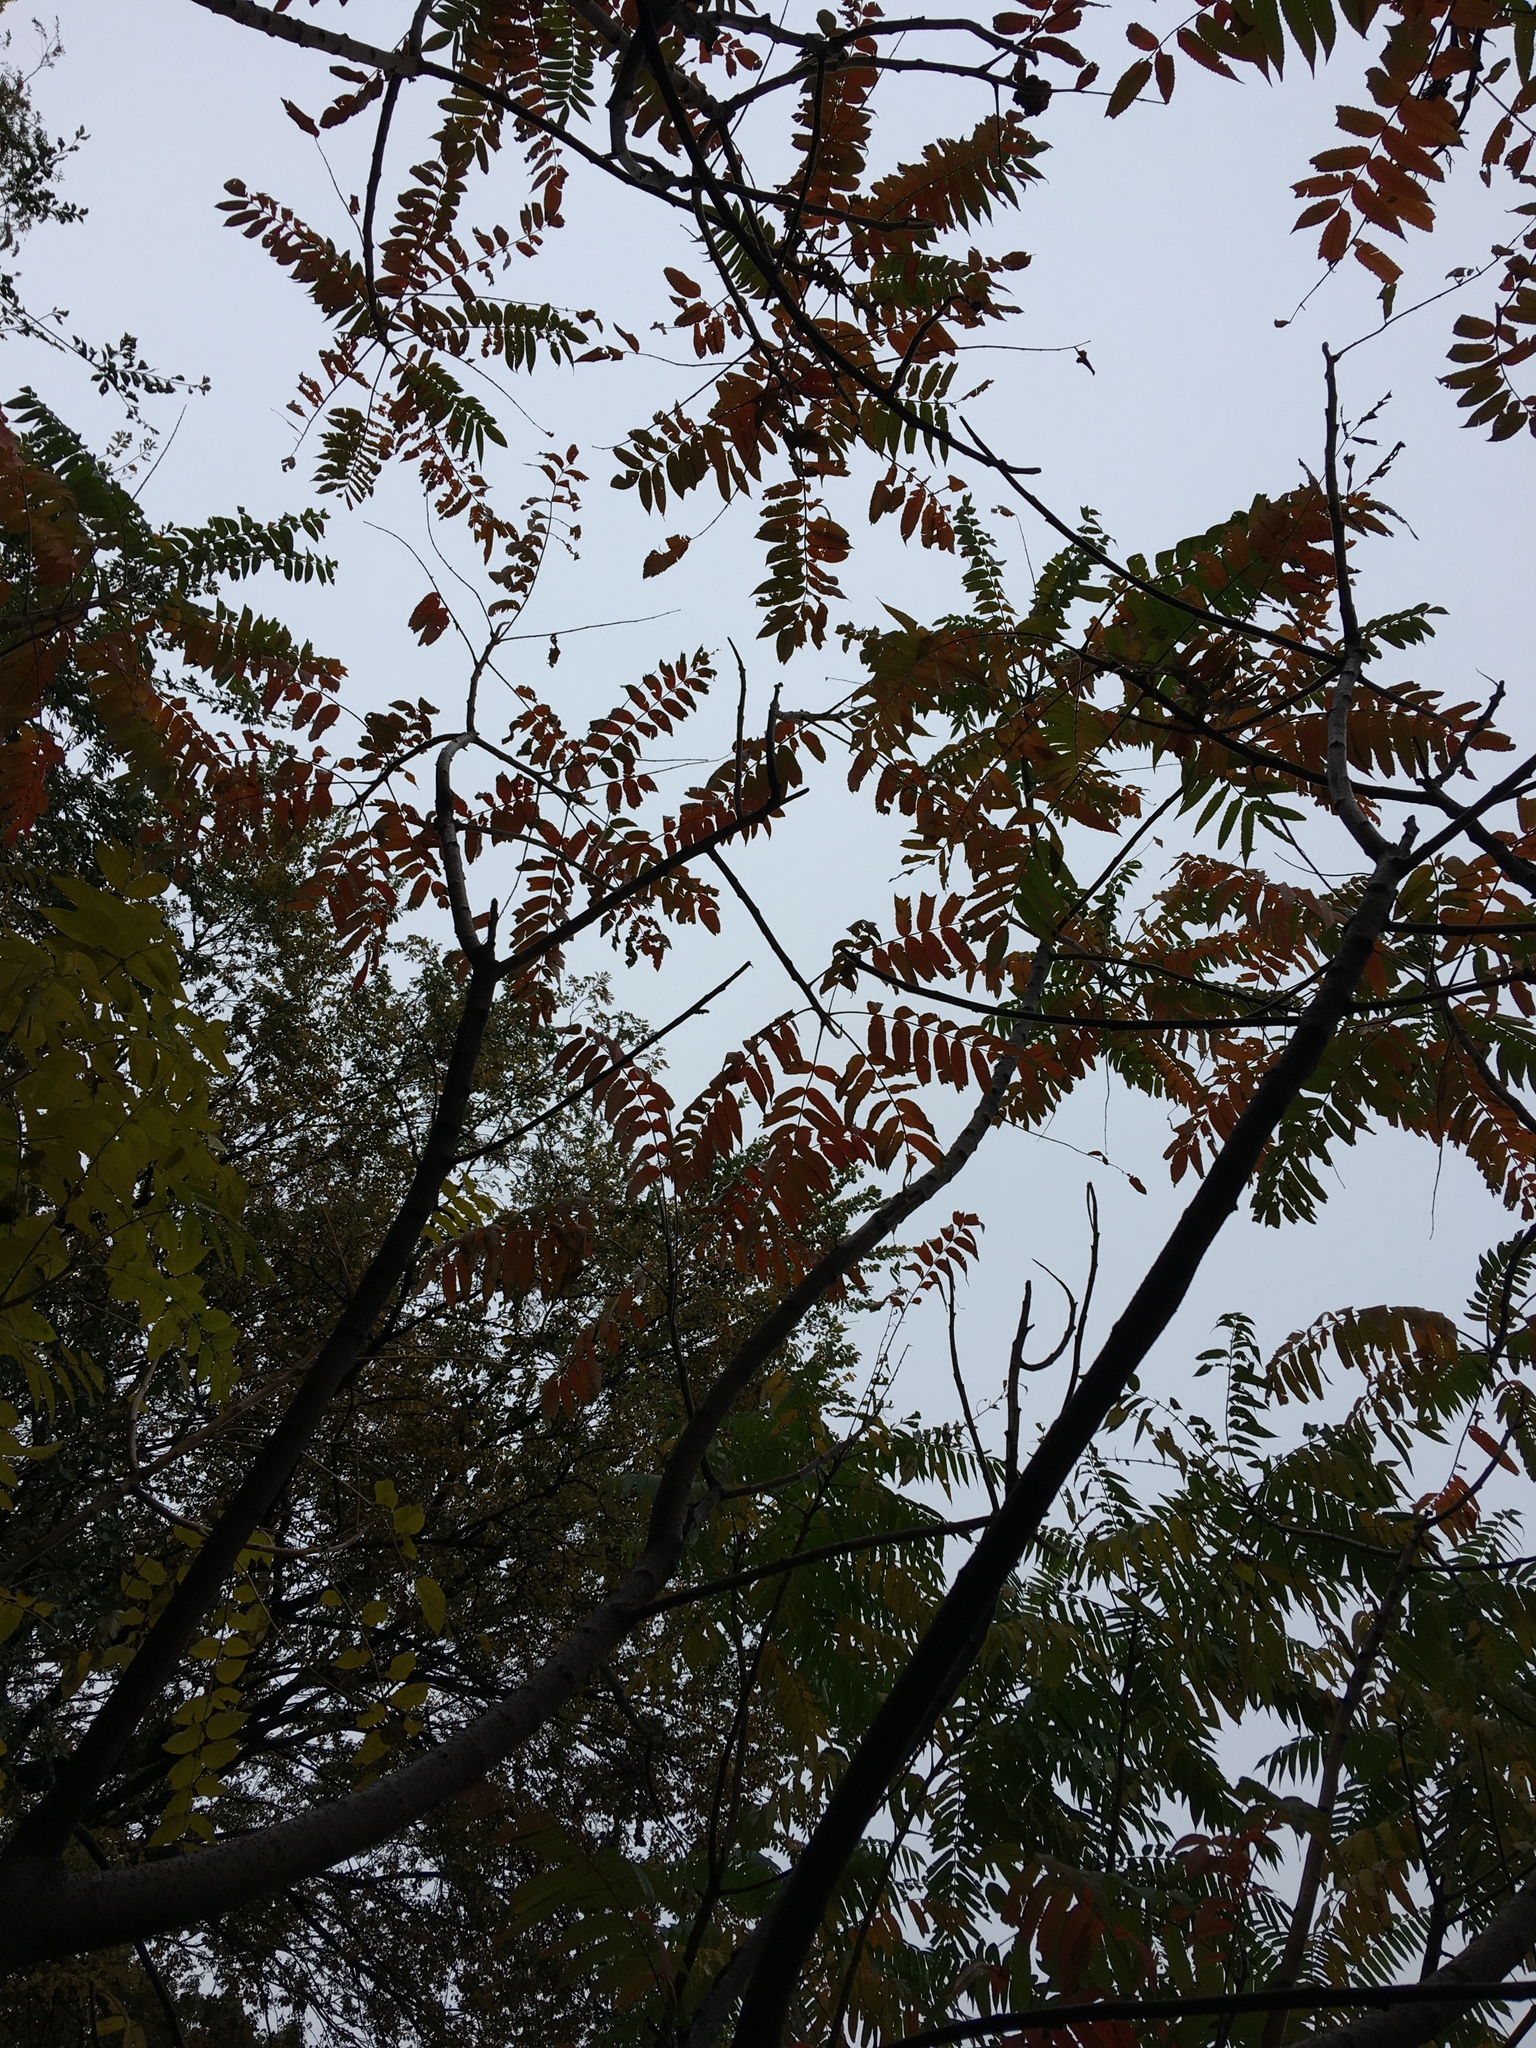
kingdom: Plantae
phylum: Tracheophyta
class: Magnoliopsida
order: Sapindales
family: Anacardiaceae
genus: Rhus
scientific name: Rhus typhina
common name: Staghorn sumac
